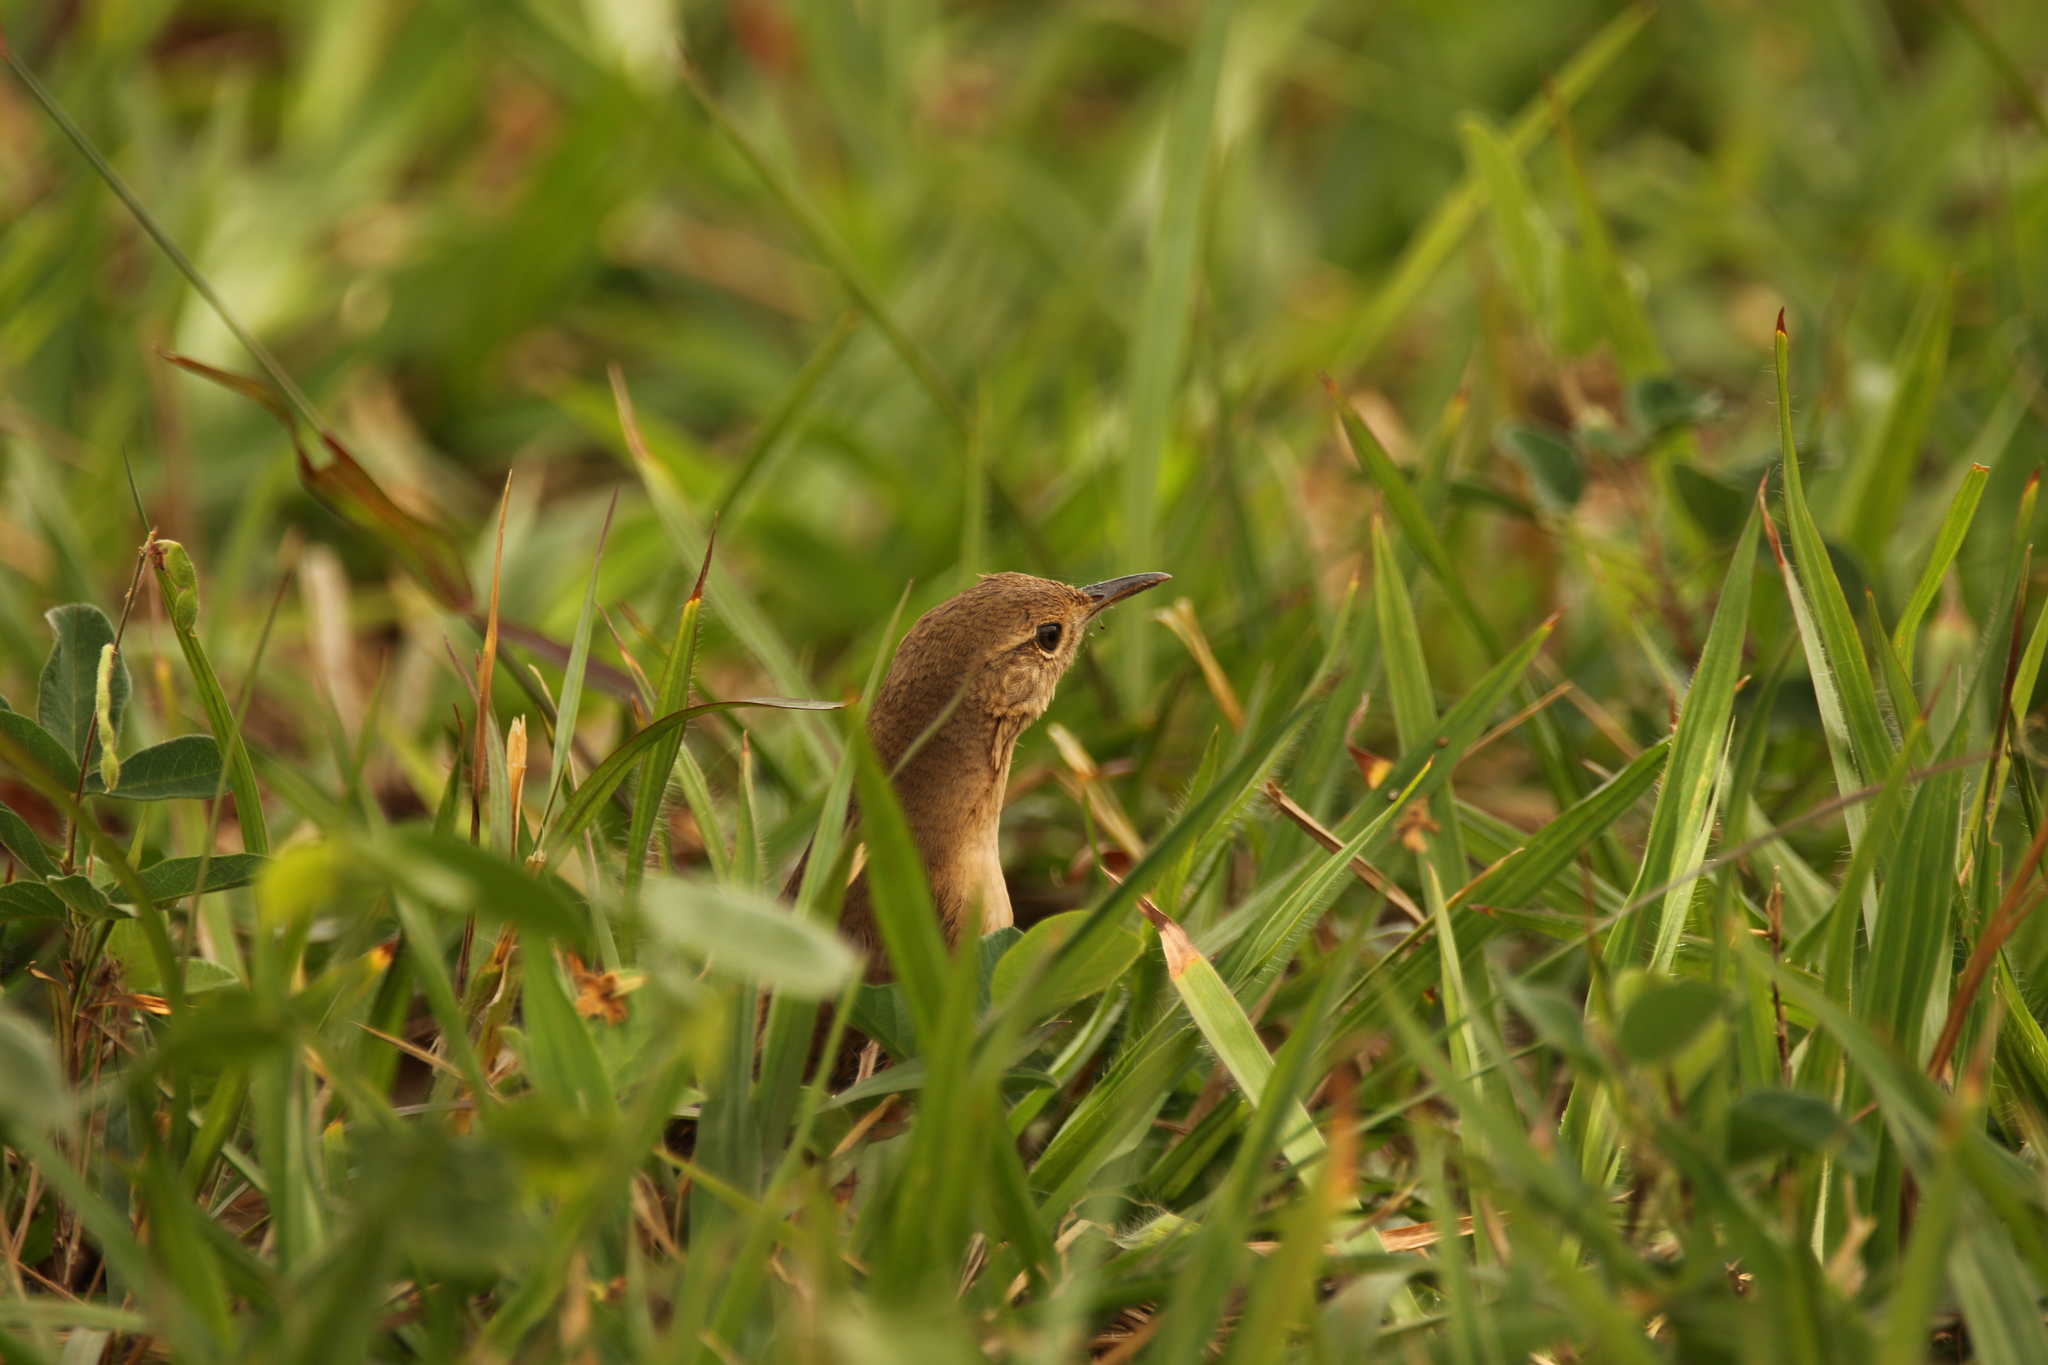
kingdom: Animalia
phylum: Chordata
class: Aves
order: Passeriformes
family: Troglodytidae
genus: Troglodytes
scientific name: Troglodytes aedon
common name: House wren
